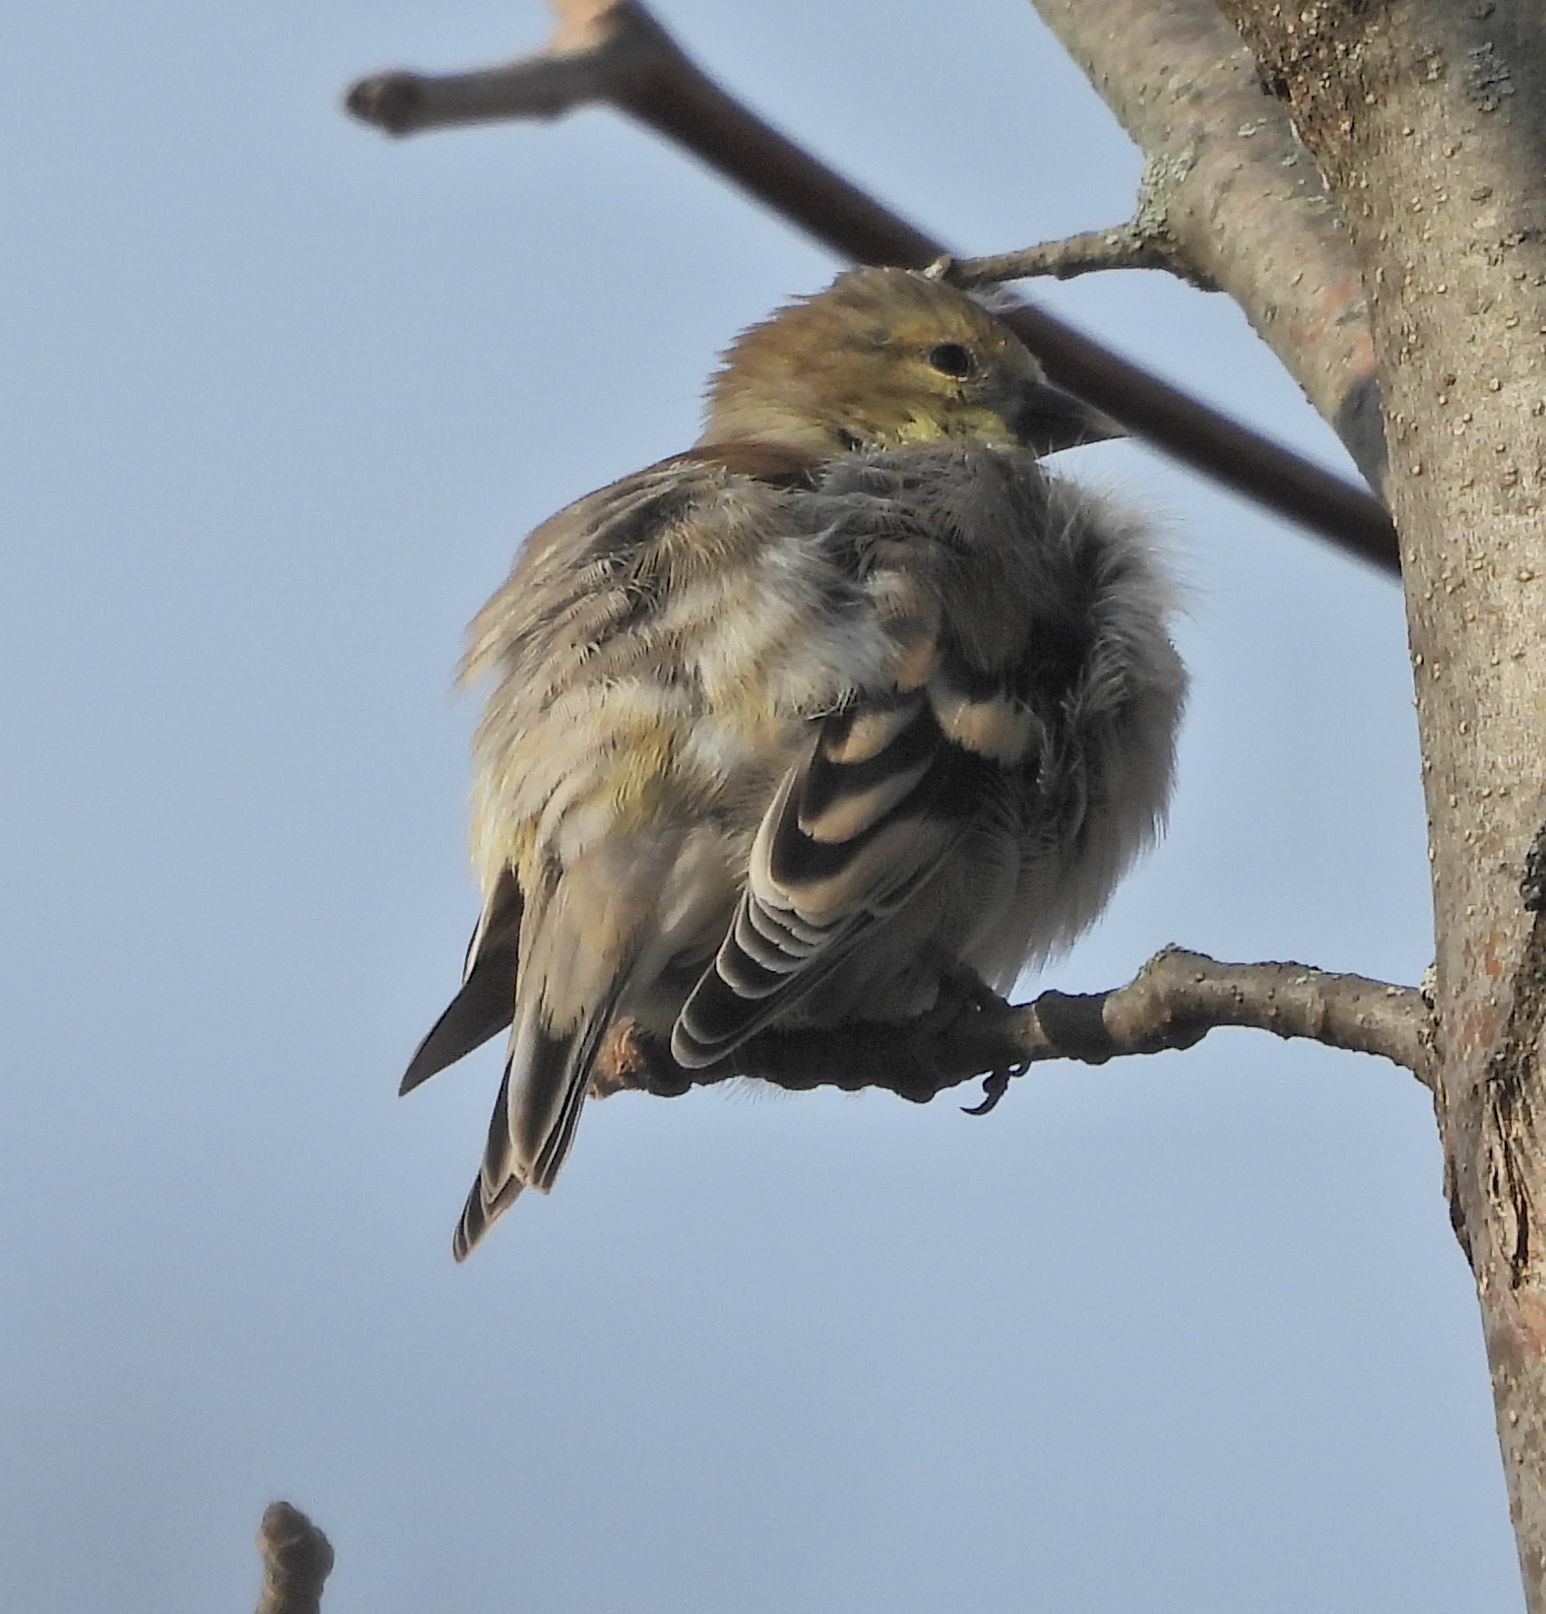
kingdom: Animalia
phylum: Chordata
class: Aves
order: Passeriformes
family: Fringillidae
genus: Spinus
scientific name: Spinus tristis
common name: American goldfinch
